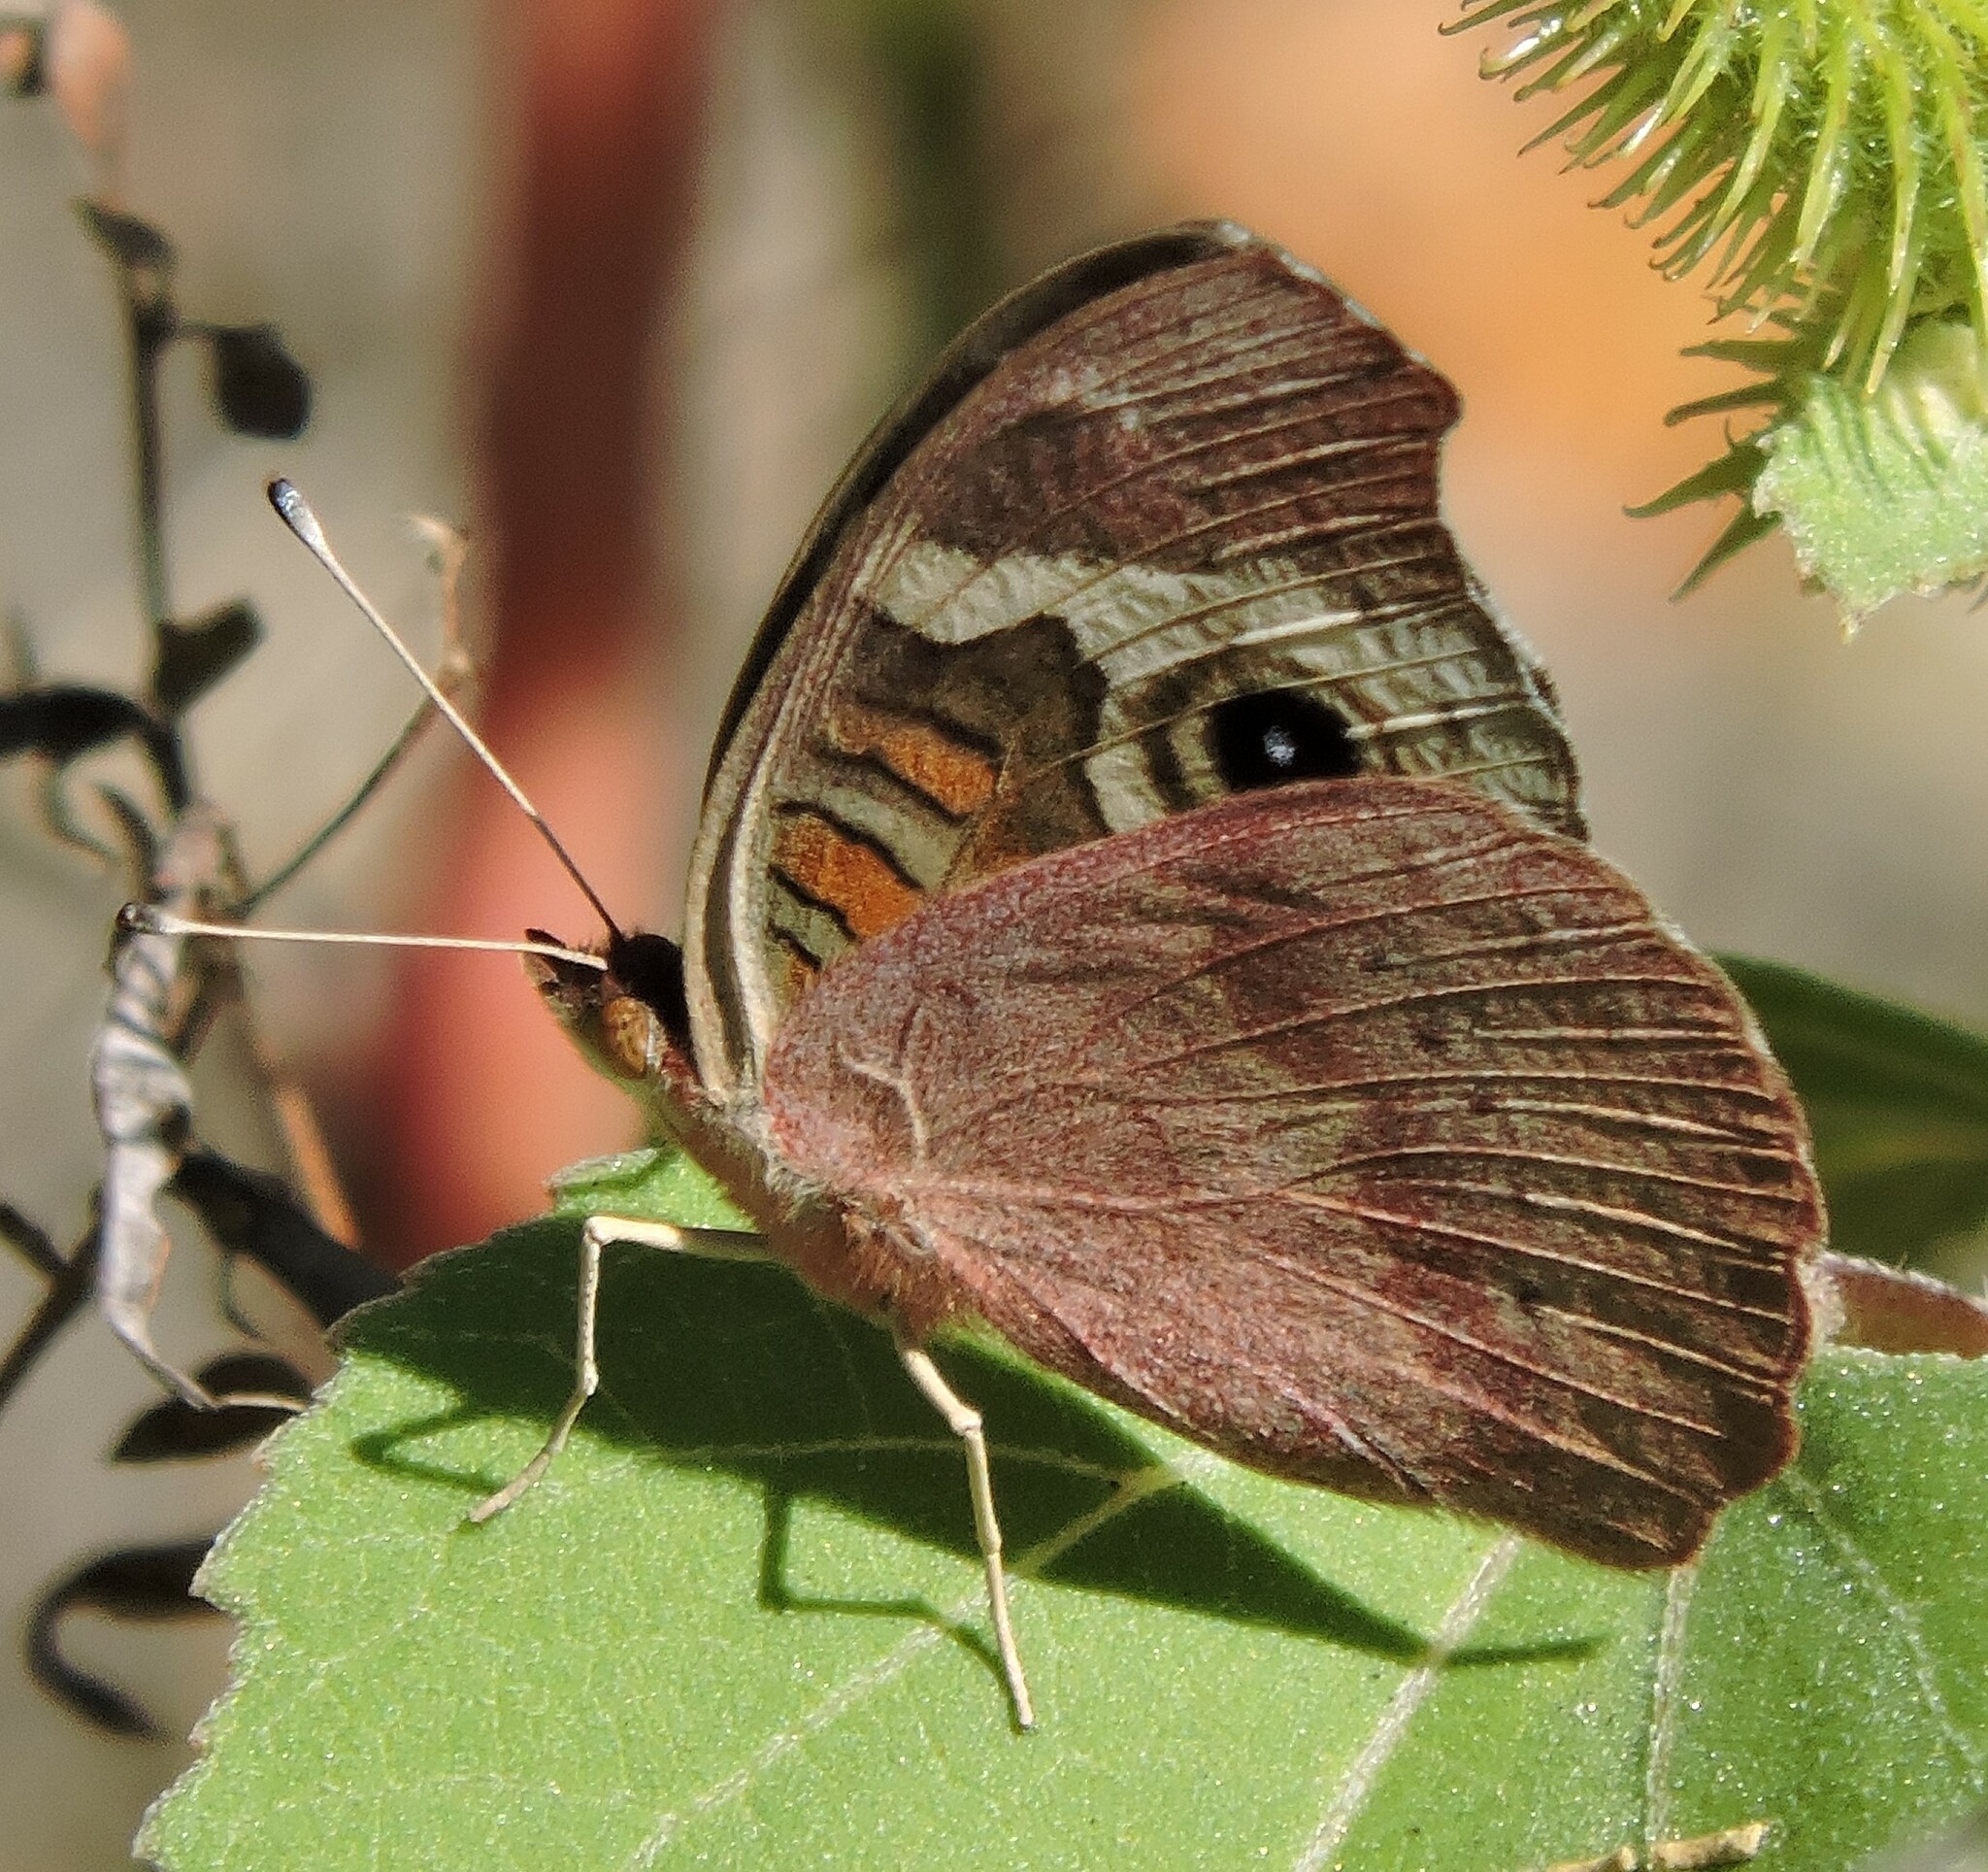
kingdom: Animalia
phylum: Arthropoda
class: Insecta
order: Lepidoptera
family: Nymphalidae
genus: Junonia
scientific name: Junonia grisea
